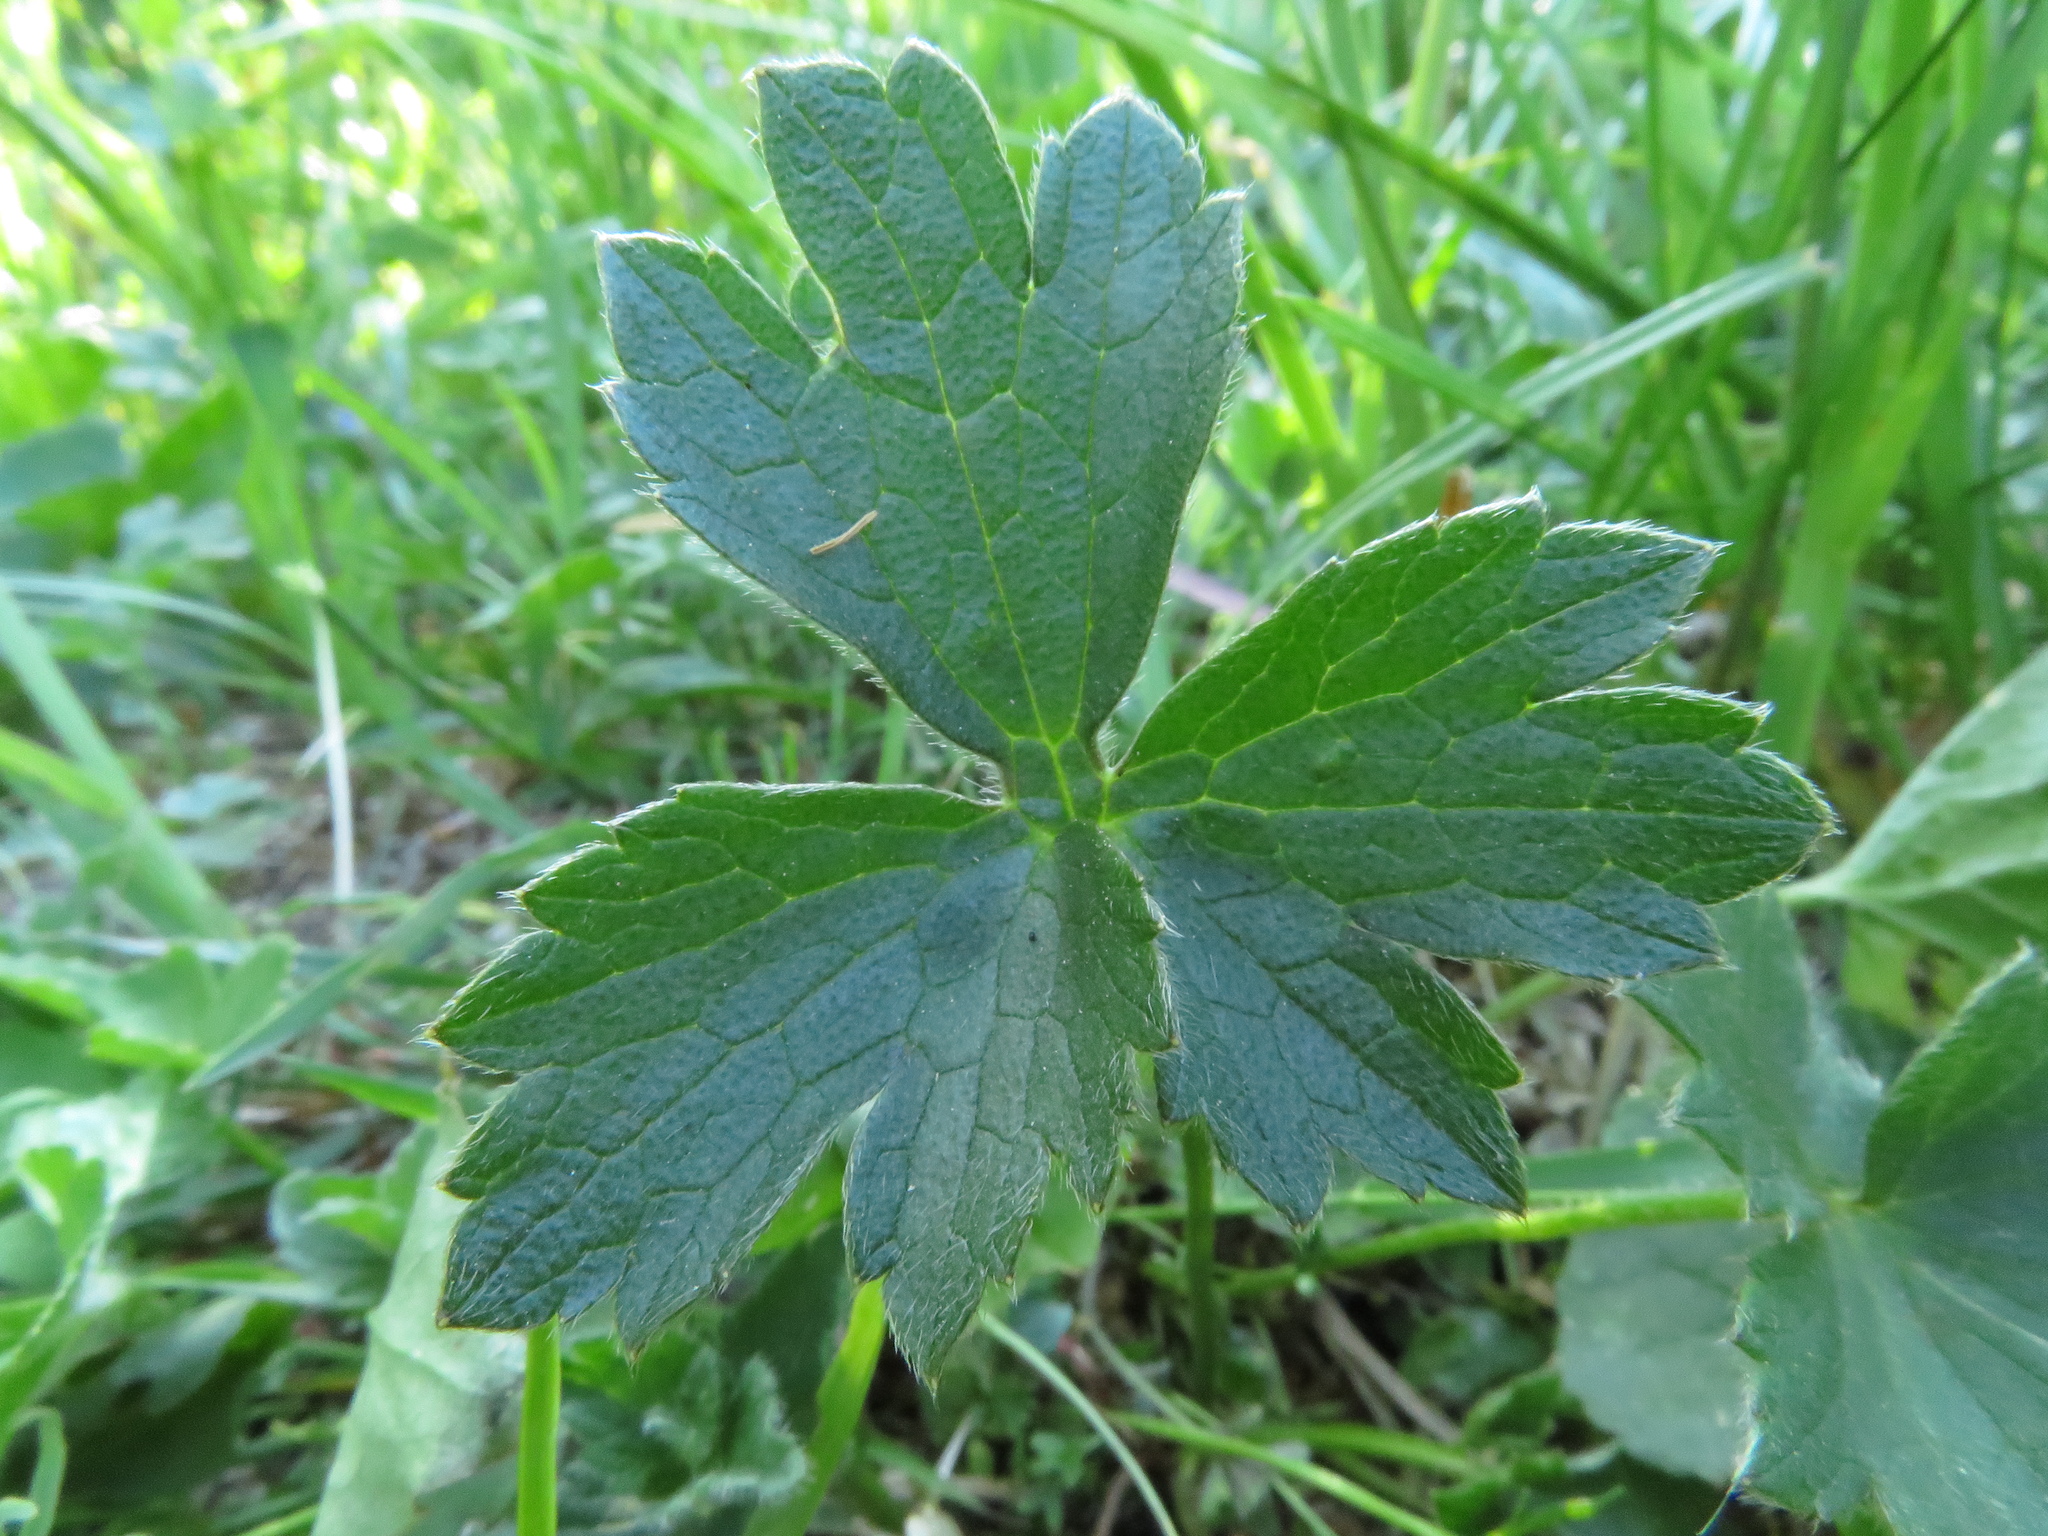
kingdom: Plantae
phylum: Tracheophyta
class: Magnoliopsida
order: Ranunculales
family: Ranunculaceae
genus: Ranunculus
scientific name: Ranunculus
